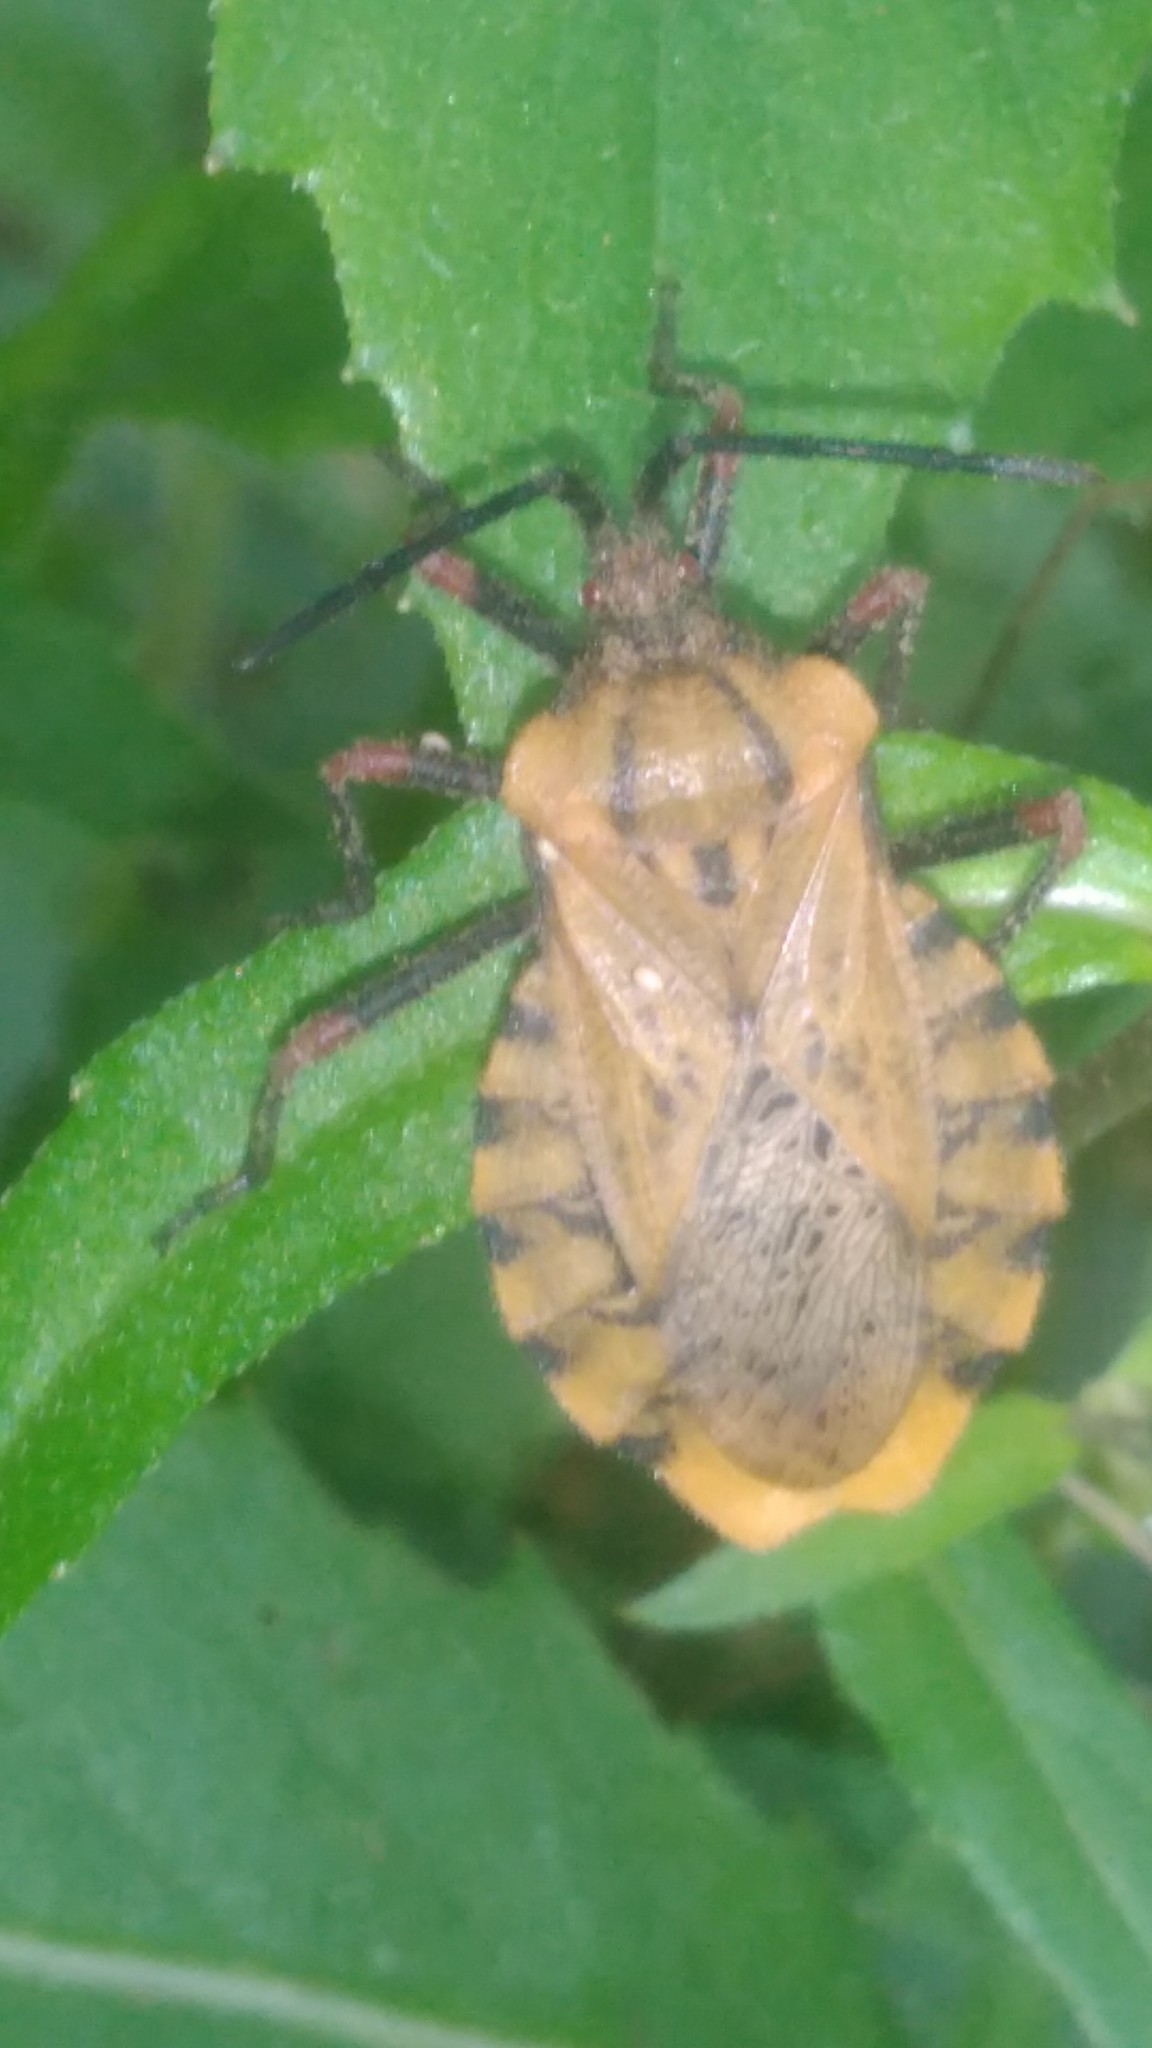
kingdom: Animalia
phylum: Arthropoda
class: Insecta
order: Hemiptera
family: Coreidae
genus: Spartocera
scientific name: Spartocera fusca
